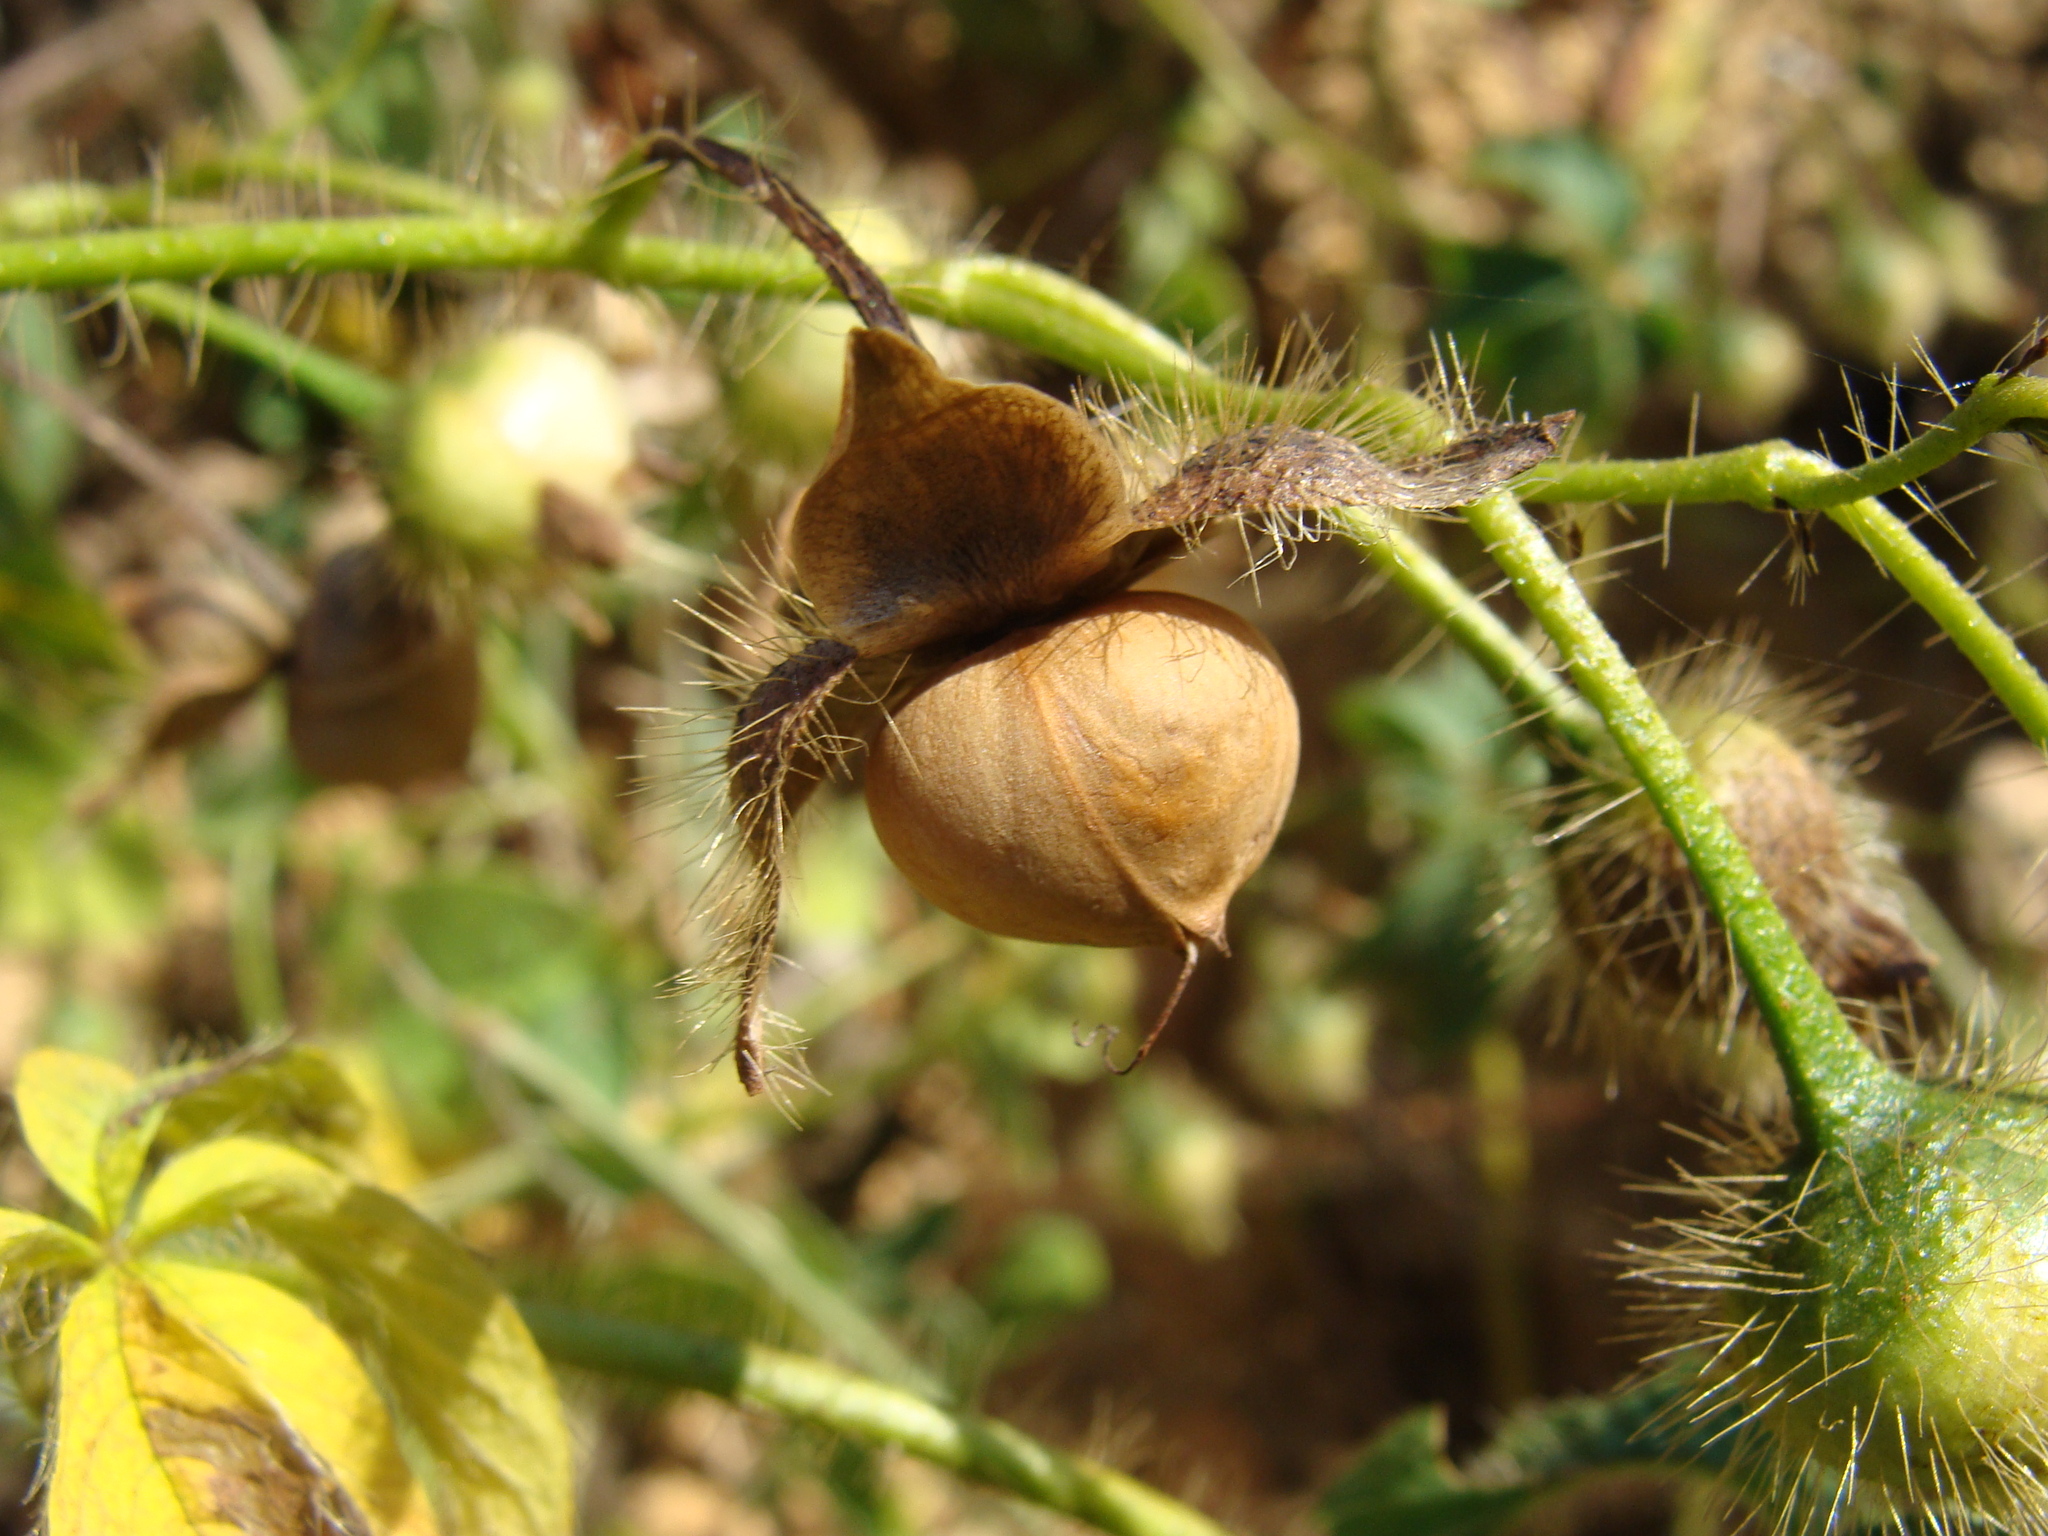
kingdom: Plantae
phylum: Tracheophyta
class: Magnoliopsida
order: Solanales
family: Convolvulaceae
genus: Distimake
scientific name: Distimake aegyptius
